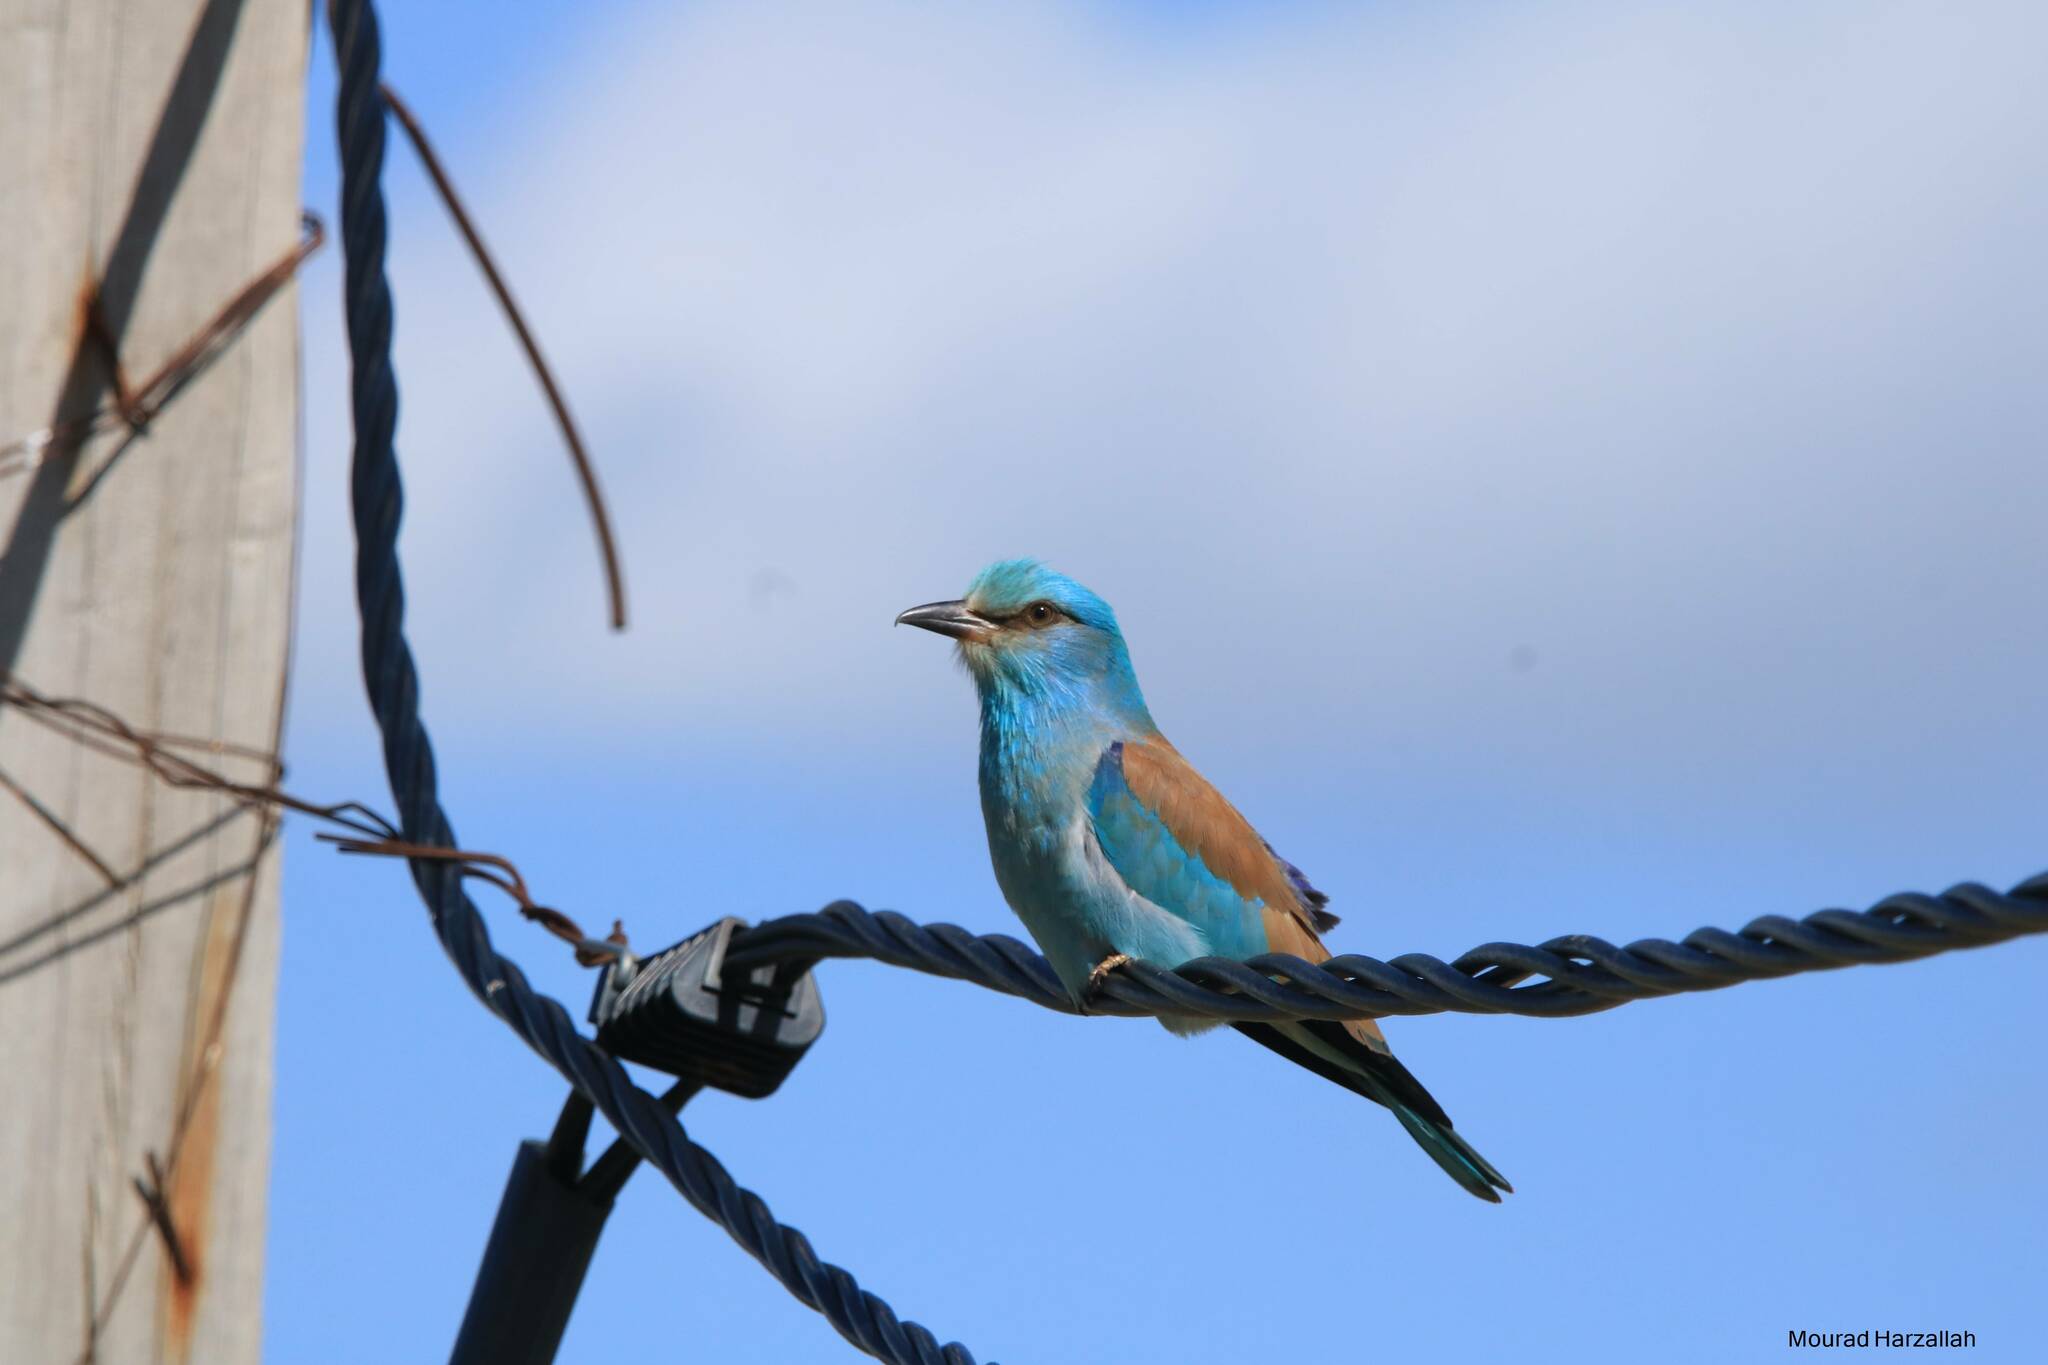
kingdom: Animalia
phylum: Chordata
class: Aves
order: Coraciiformes
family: Coraciidae
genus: Coracias
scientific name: Coracias garrulus
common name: European roller
